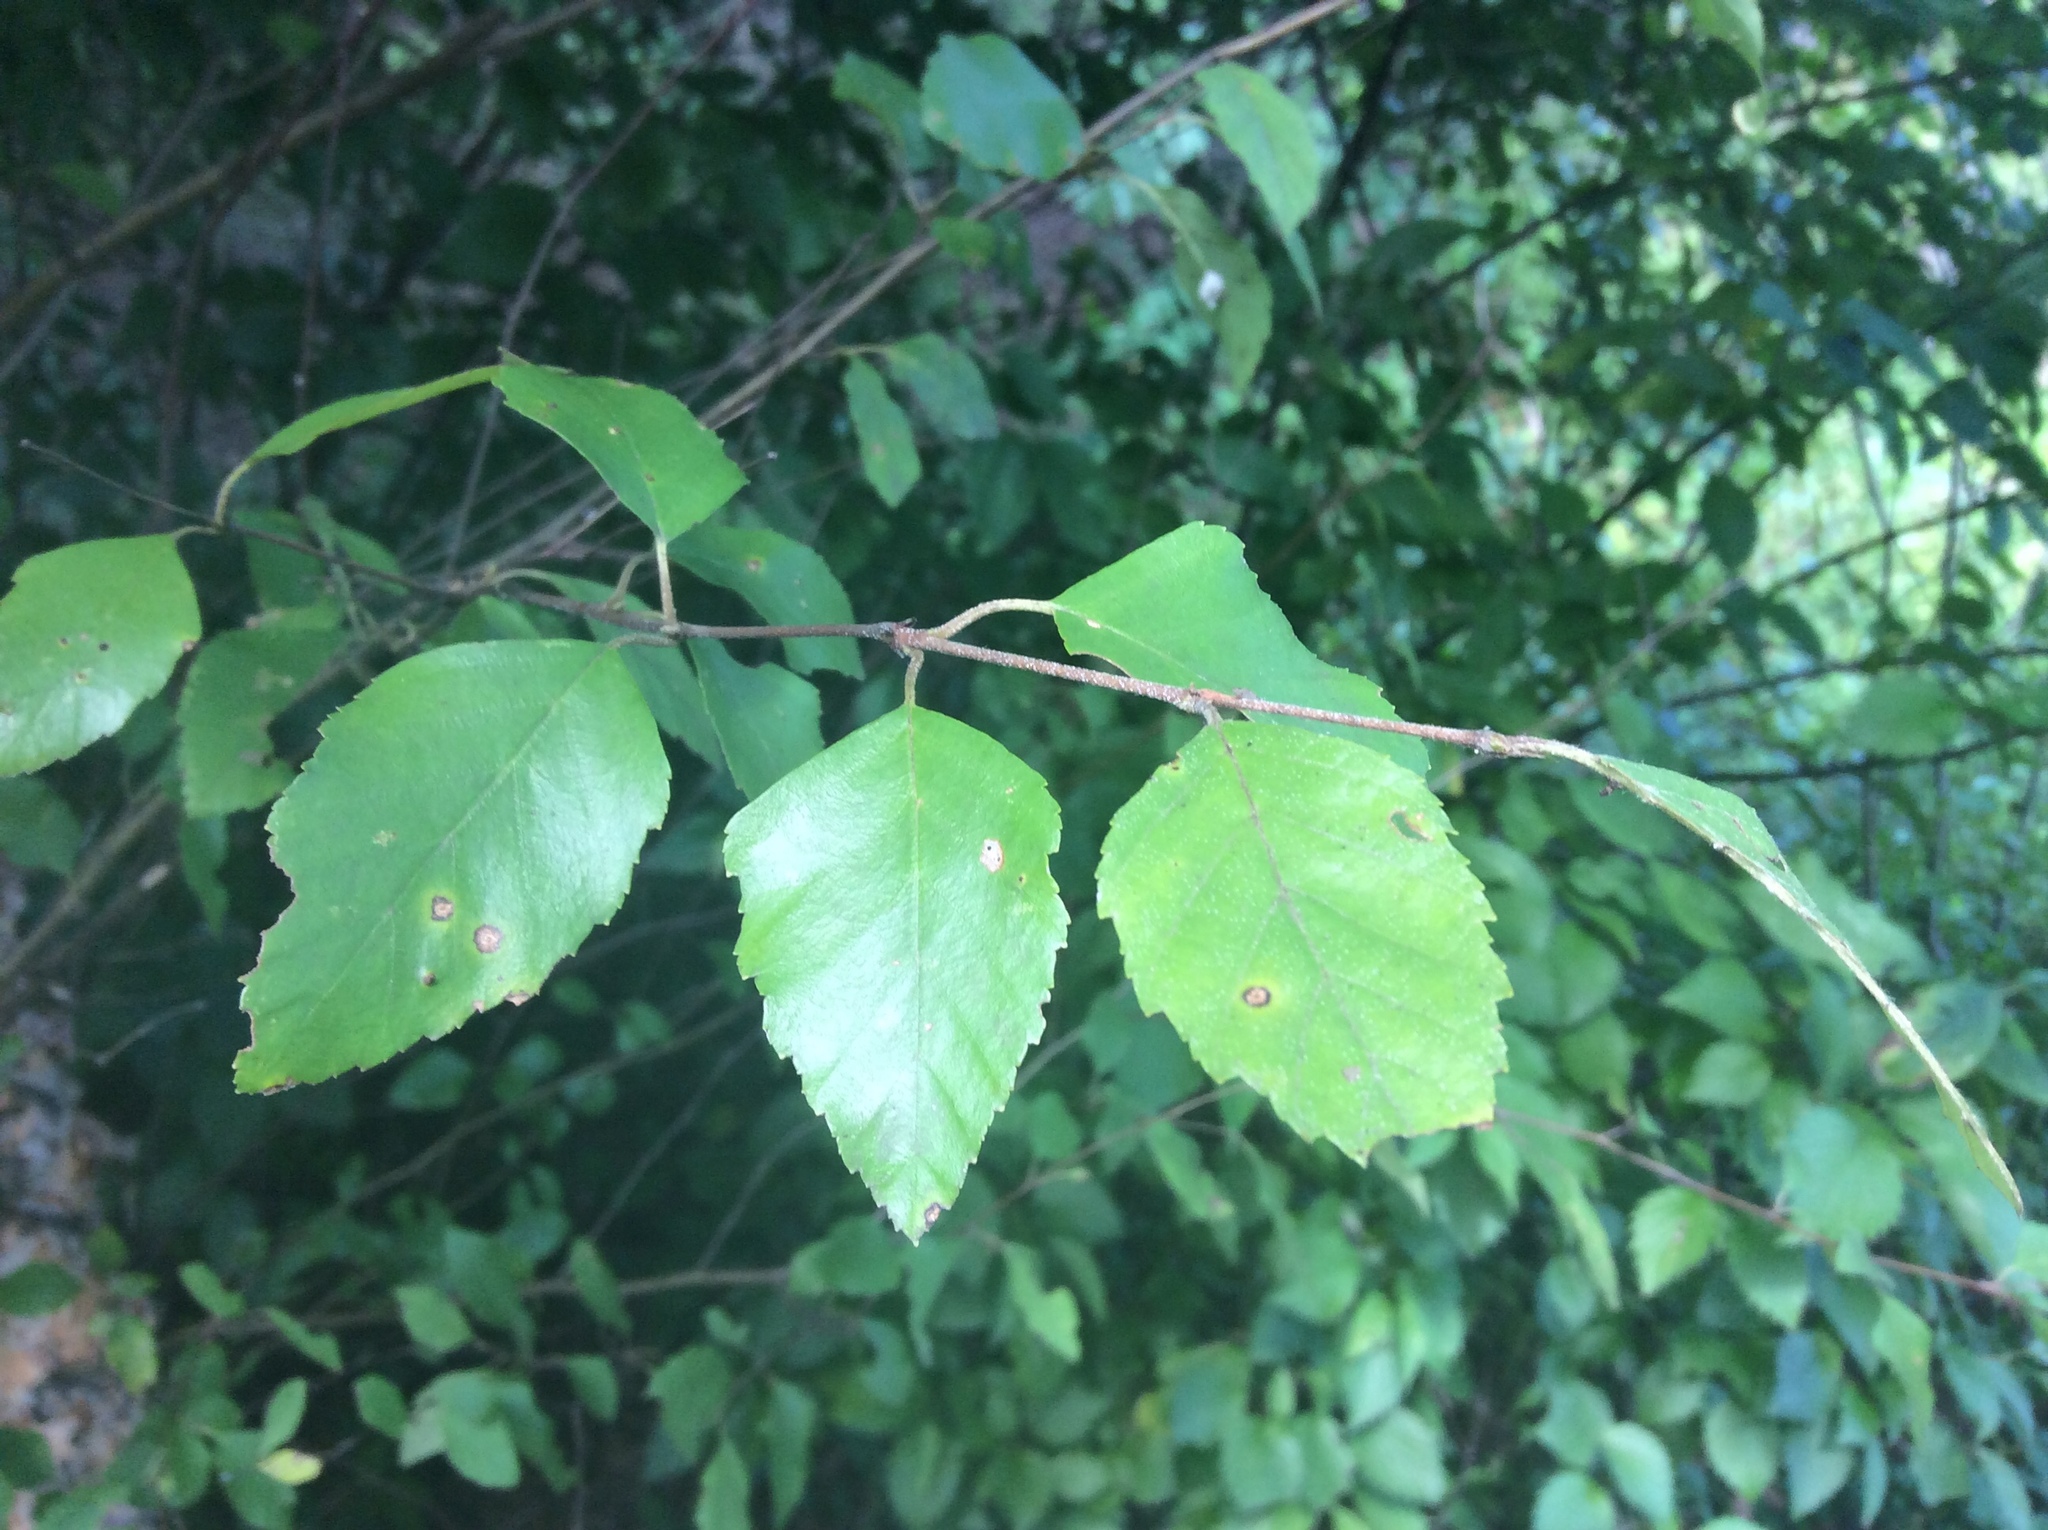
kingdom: Plantae
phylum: Tracheophyta
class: Magnoliopsida
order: Fagales
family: Betulaceae
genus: Betula
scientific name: Betula nigra
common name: Black birch
